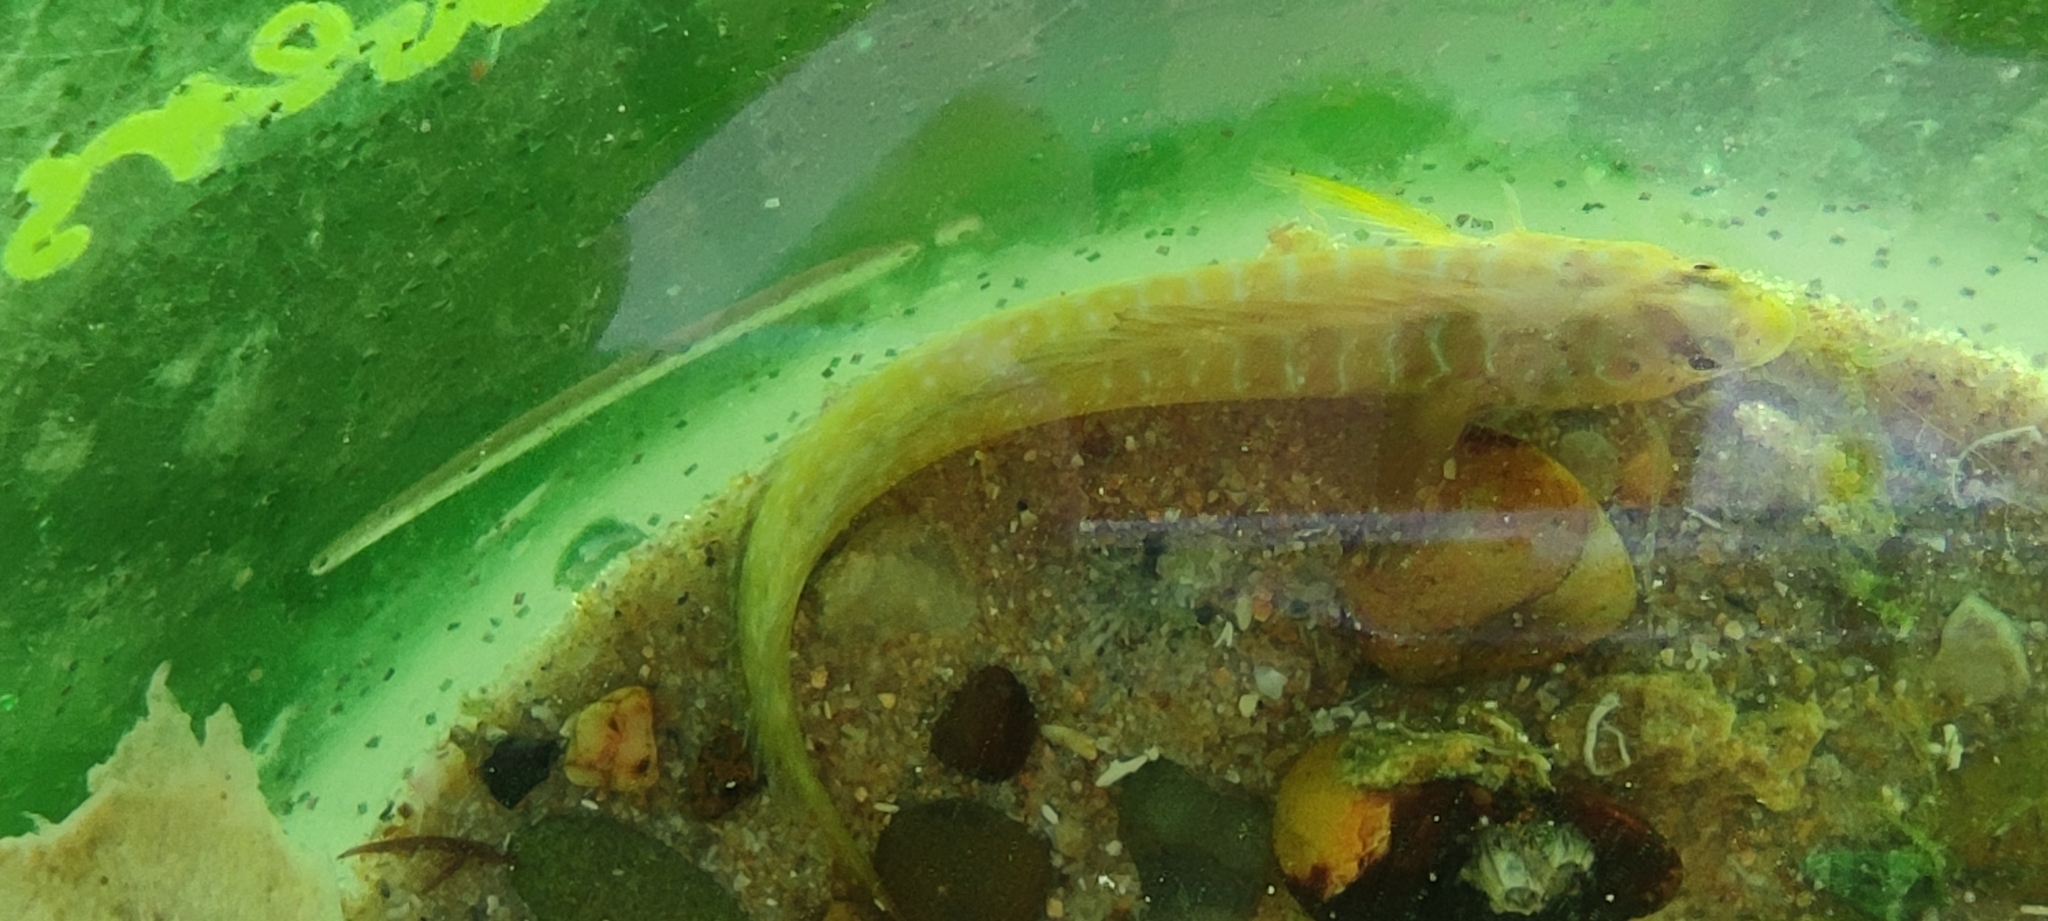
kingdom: Animalia
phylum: Chordata
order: Perciformes
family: Blenniidae
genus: Salaria
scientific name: Salaria pavo
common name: Peacock blenny
